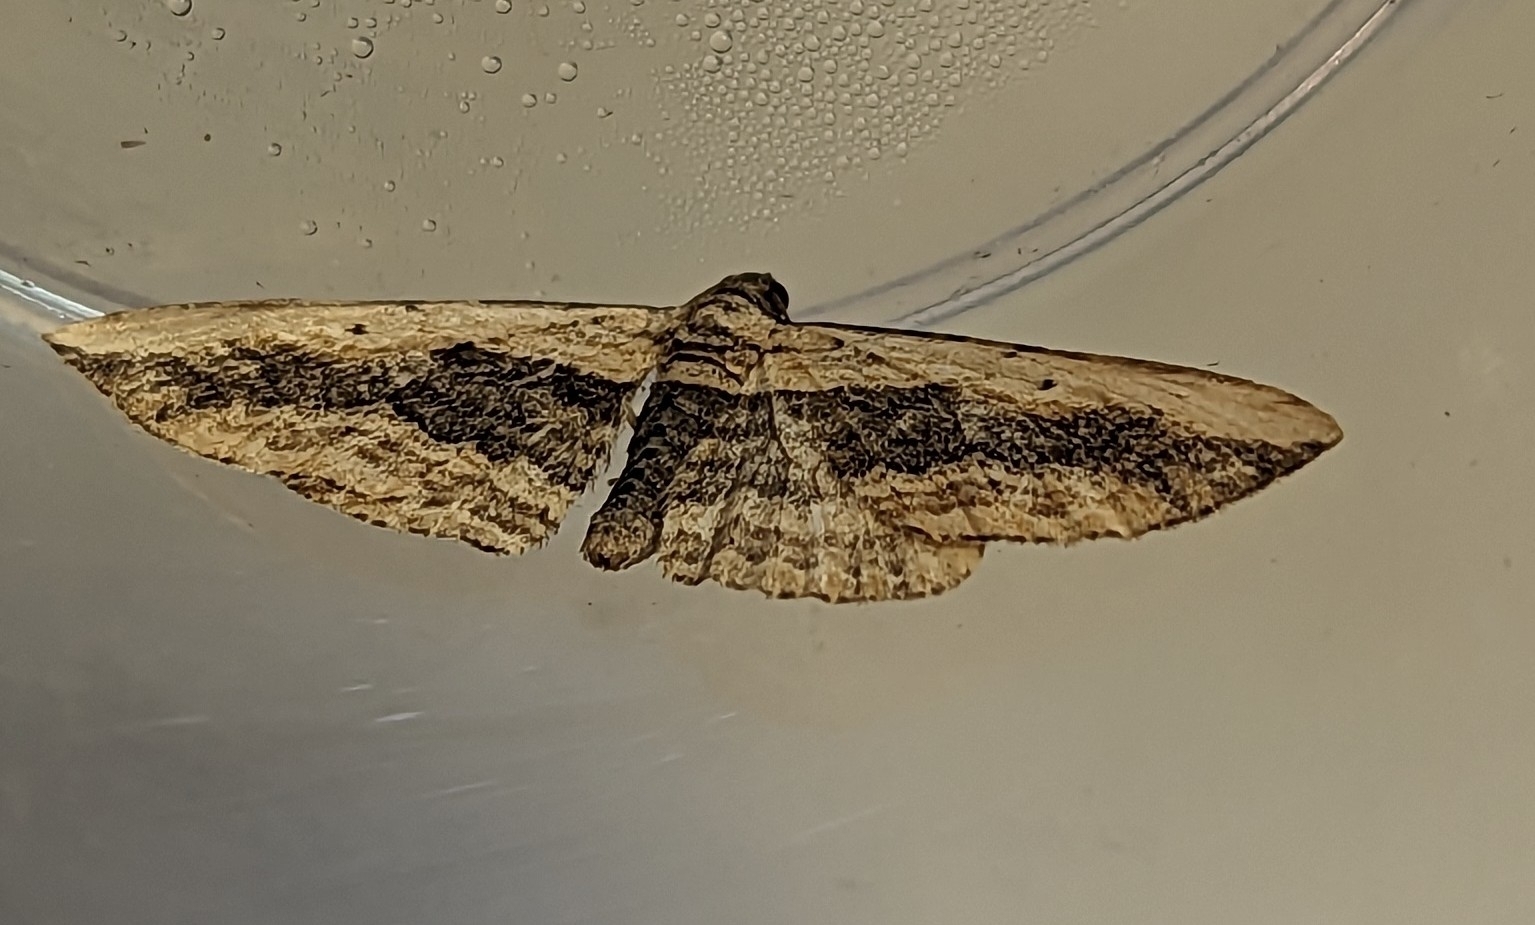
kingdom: Animalia
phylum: Arthropoda
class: Insecta
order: Lepidoptera
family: Geometridae
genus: Horisme
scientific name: Horisme vitalbata
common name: Small waved umber
